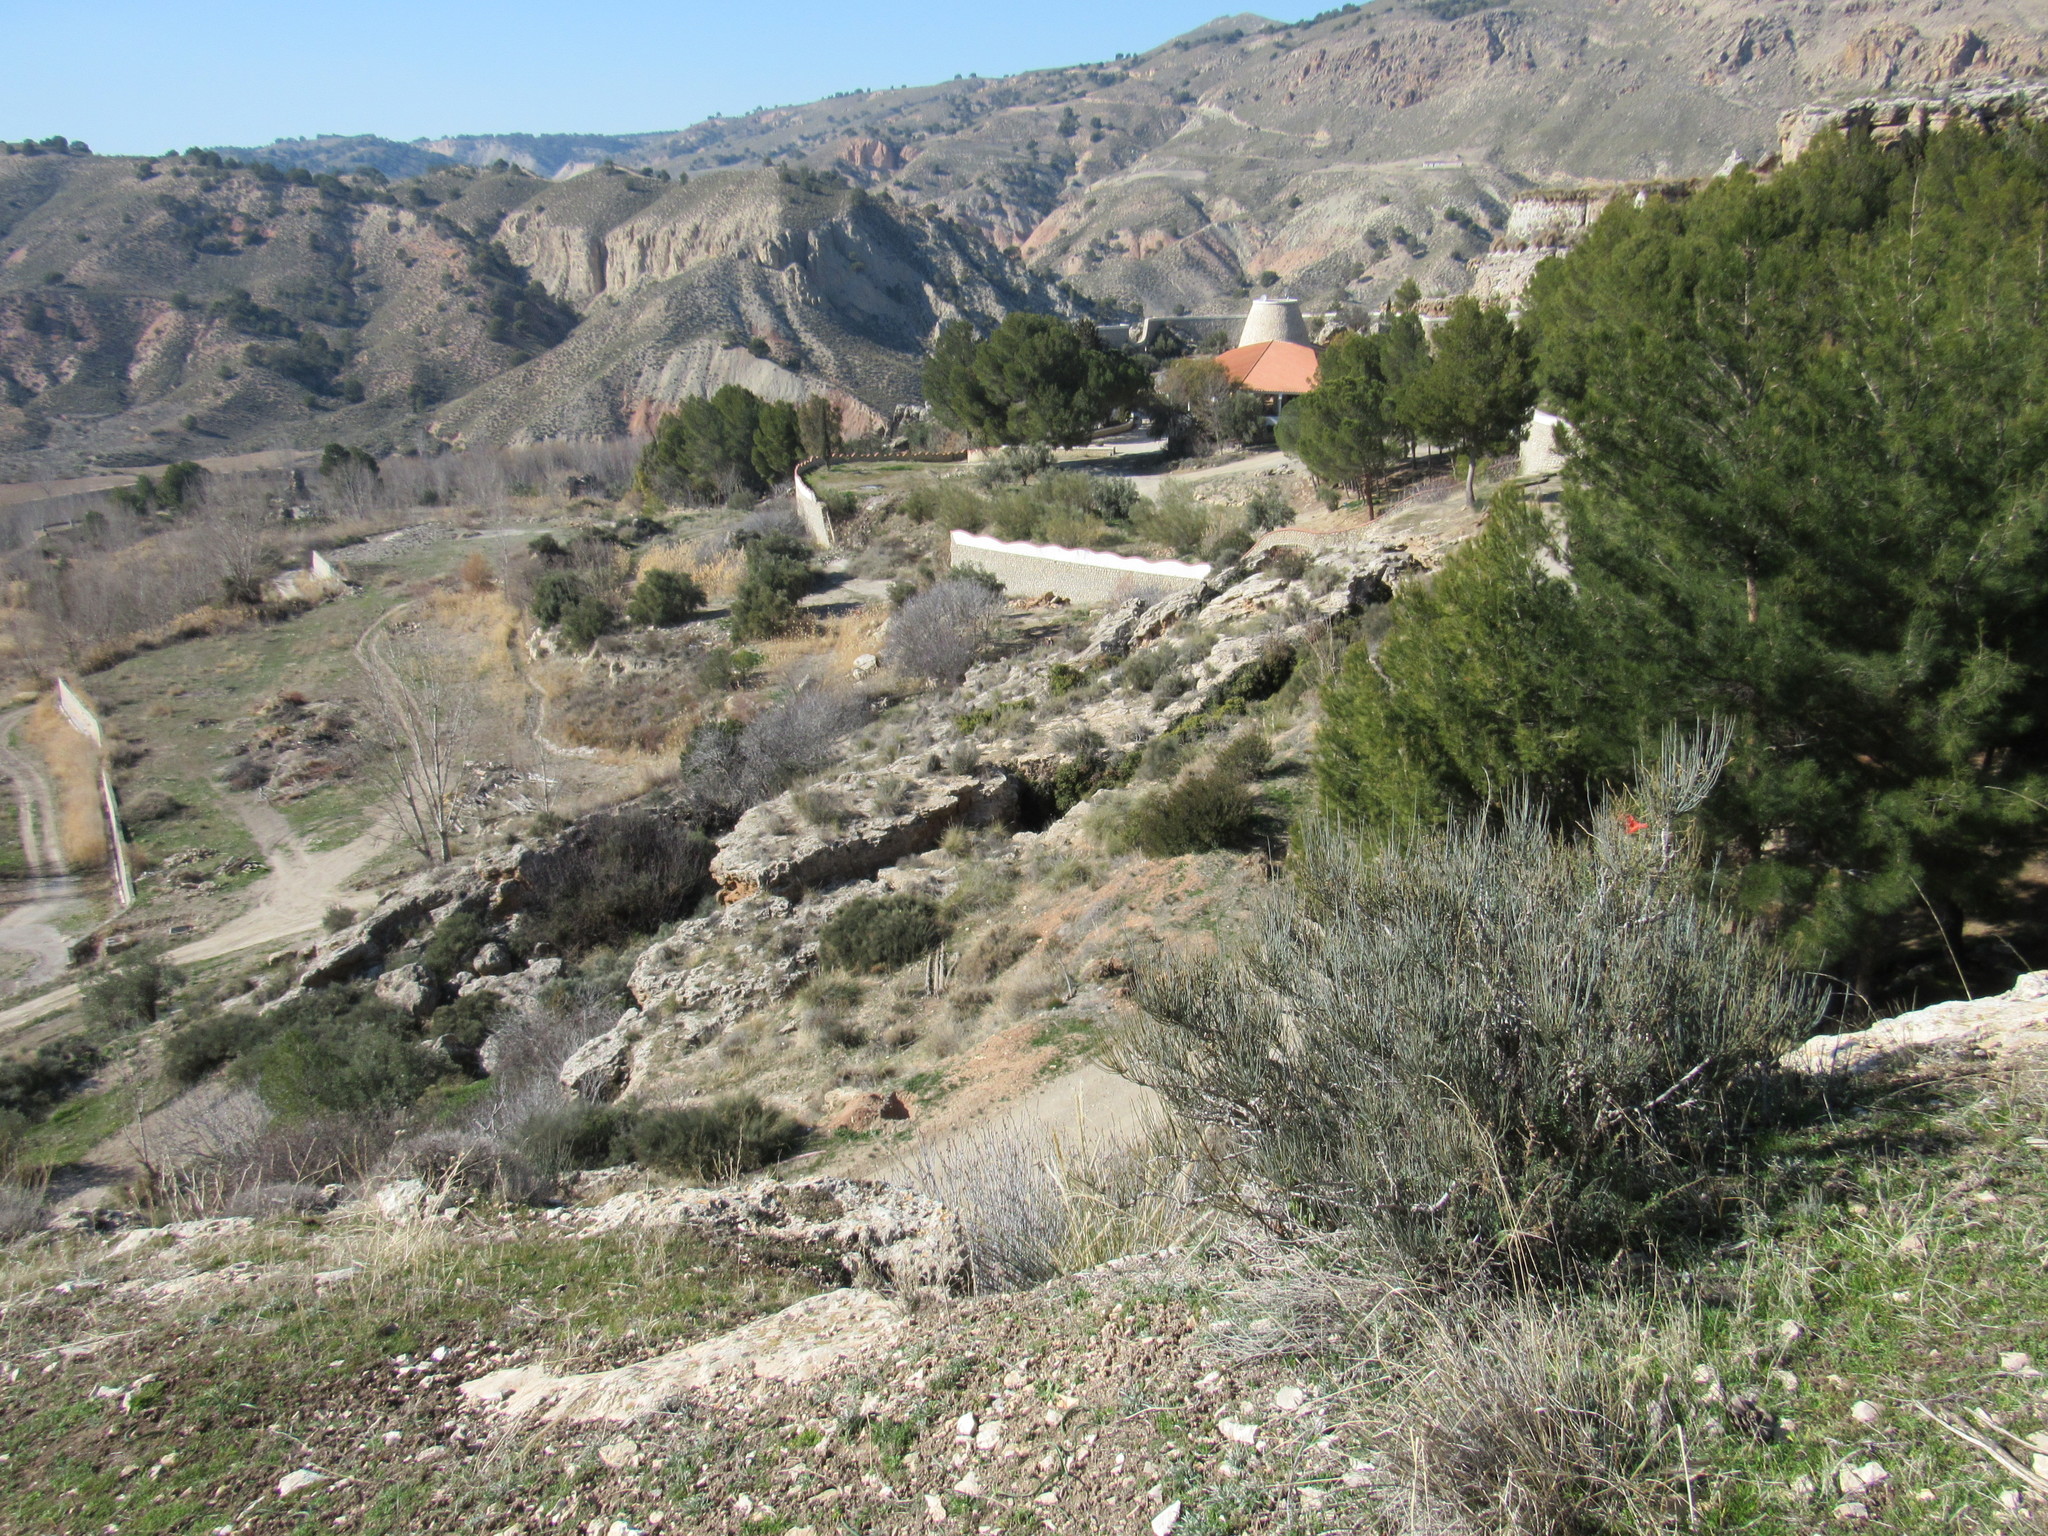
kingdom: Plantae
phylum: Tracheophyta
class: Gnetopsida
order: Ephedrales
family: Ephedraceae
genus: Ephedra
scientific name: Ephedra fragilis
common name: Joint pine
